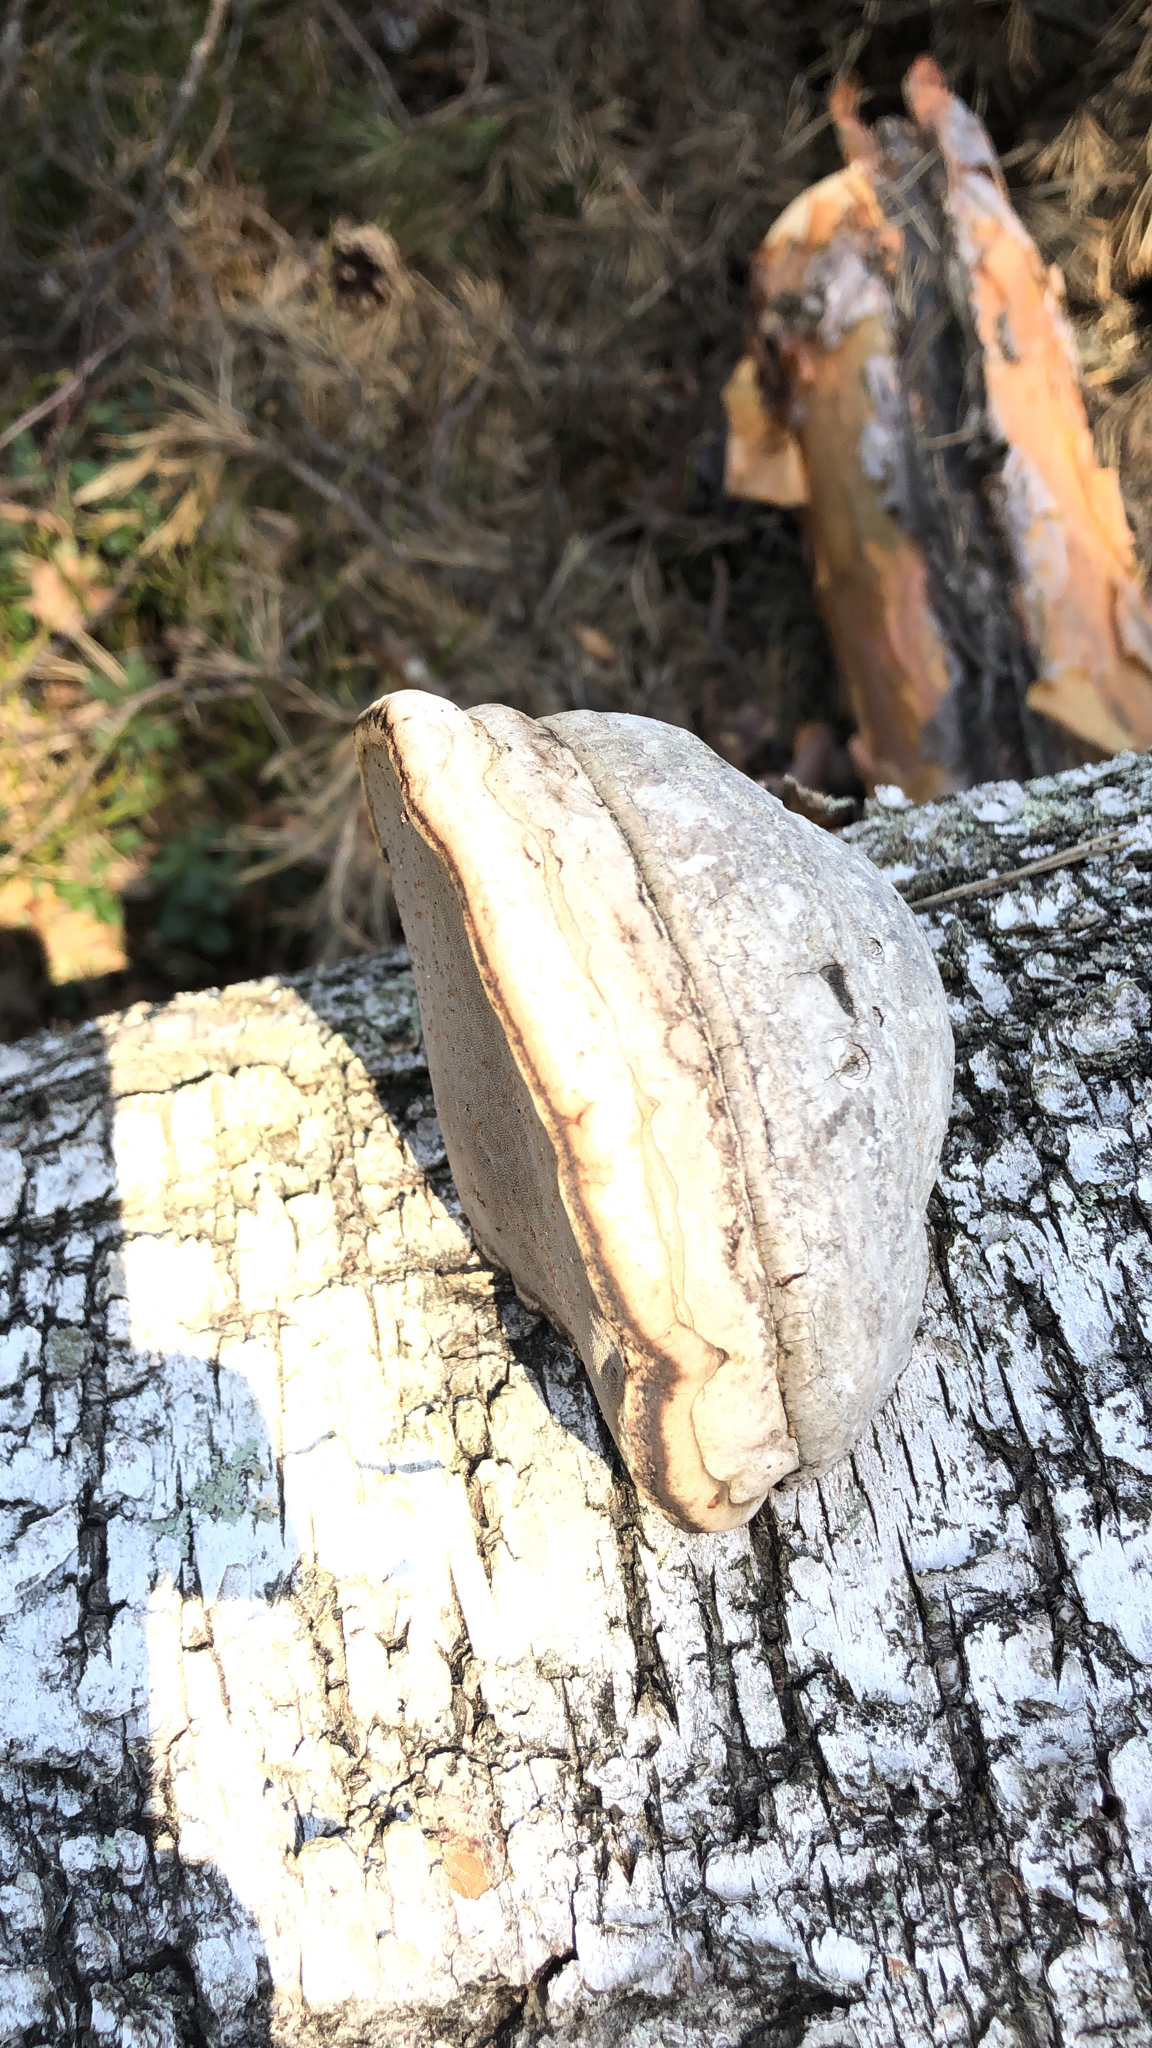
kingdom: Fungi
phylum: Basidiomycota
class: Agaricomycetes
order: Polyporales
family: Polyporaceae
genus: Fomes
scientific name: Fomes fomentarius
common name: Hoof fungus
